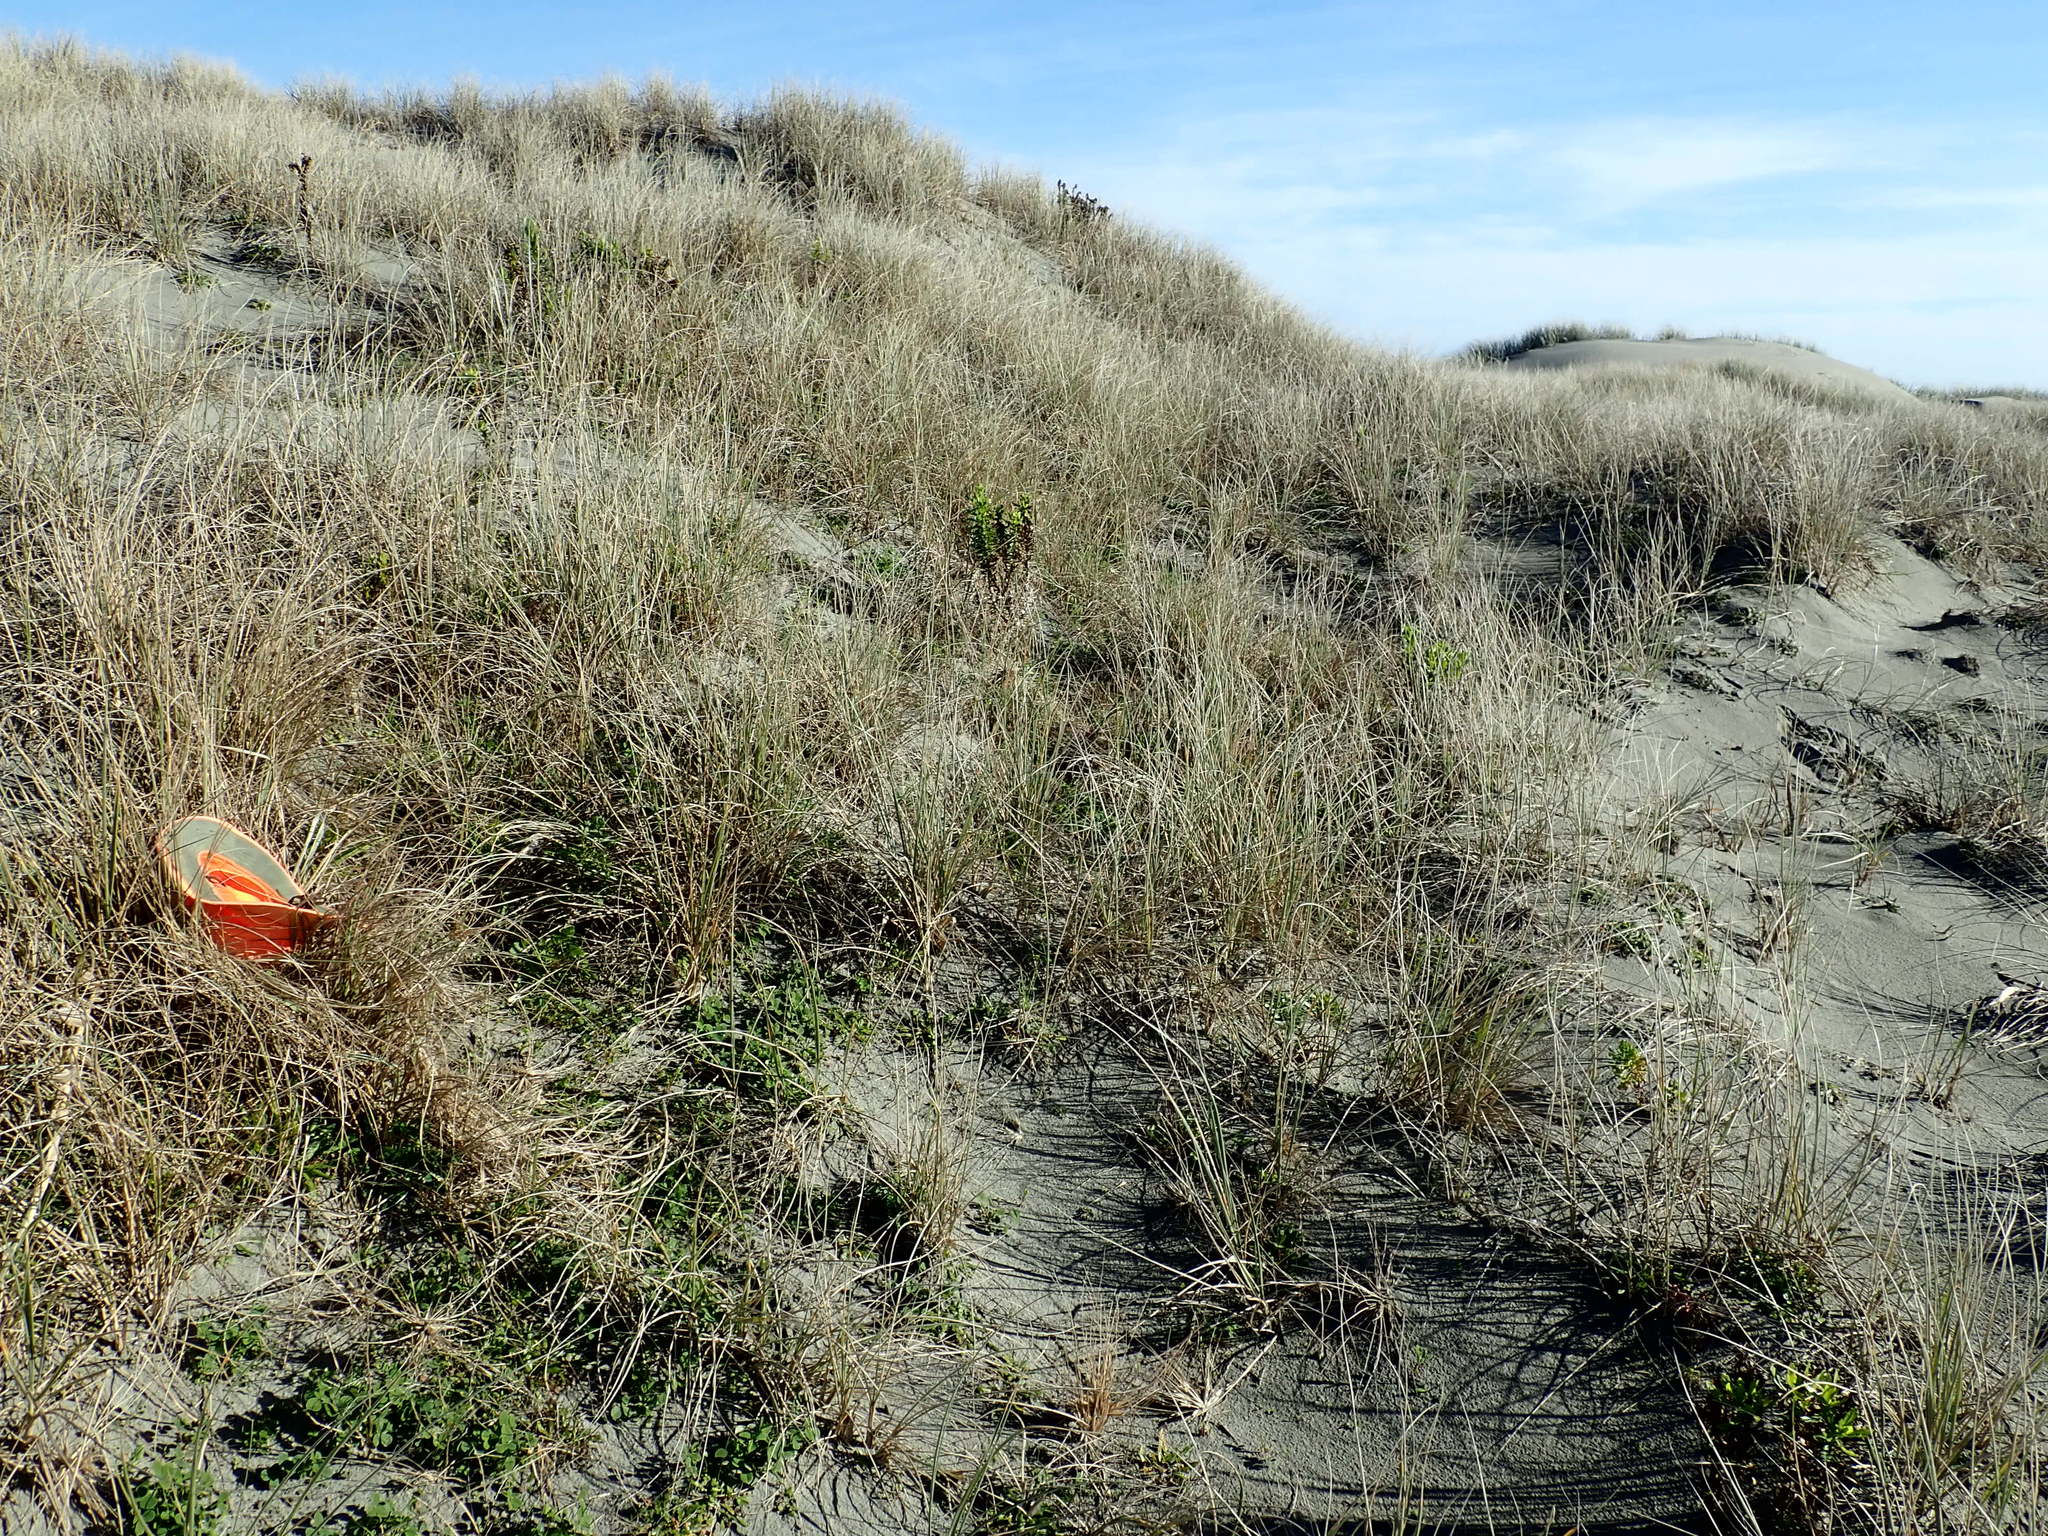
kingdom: Animalia
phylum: Arthropoda
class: Arachnida
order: Araneae
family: Theridiidae
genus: Steatoda
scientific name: Steatoda capensis
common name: Cobweb weaver
